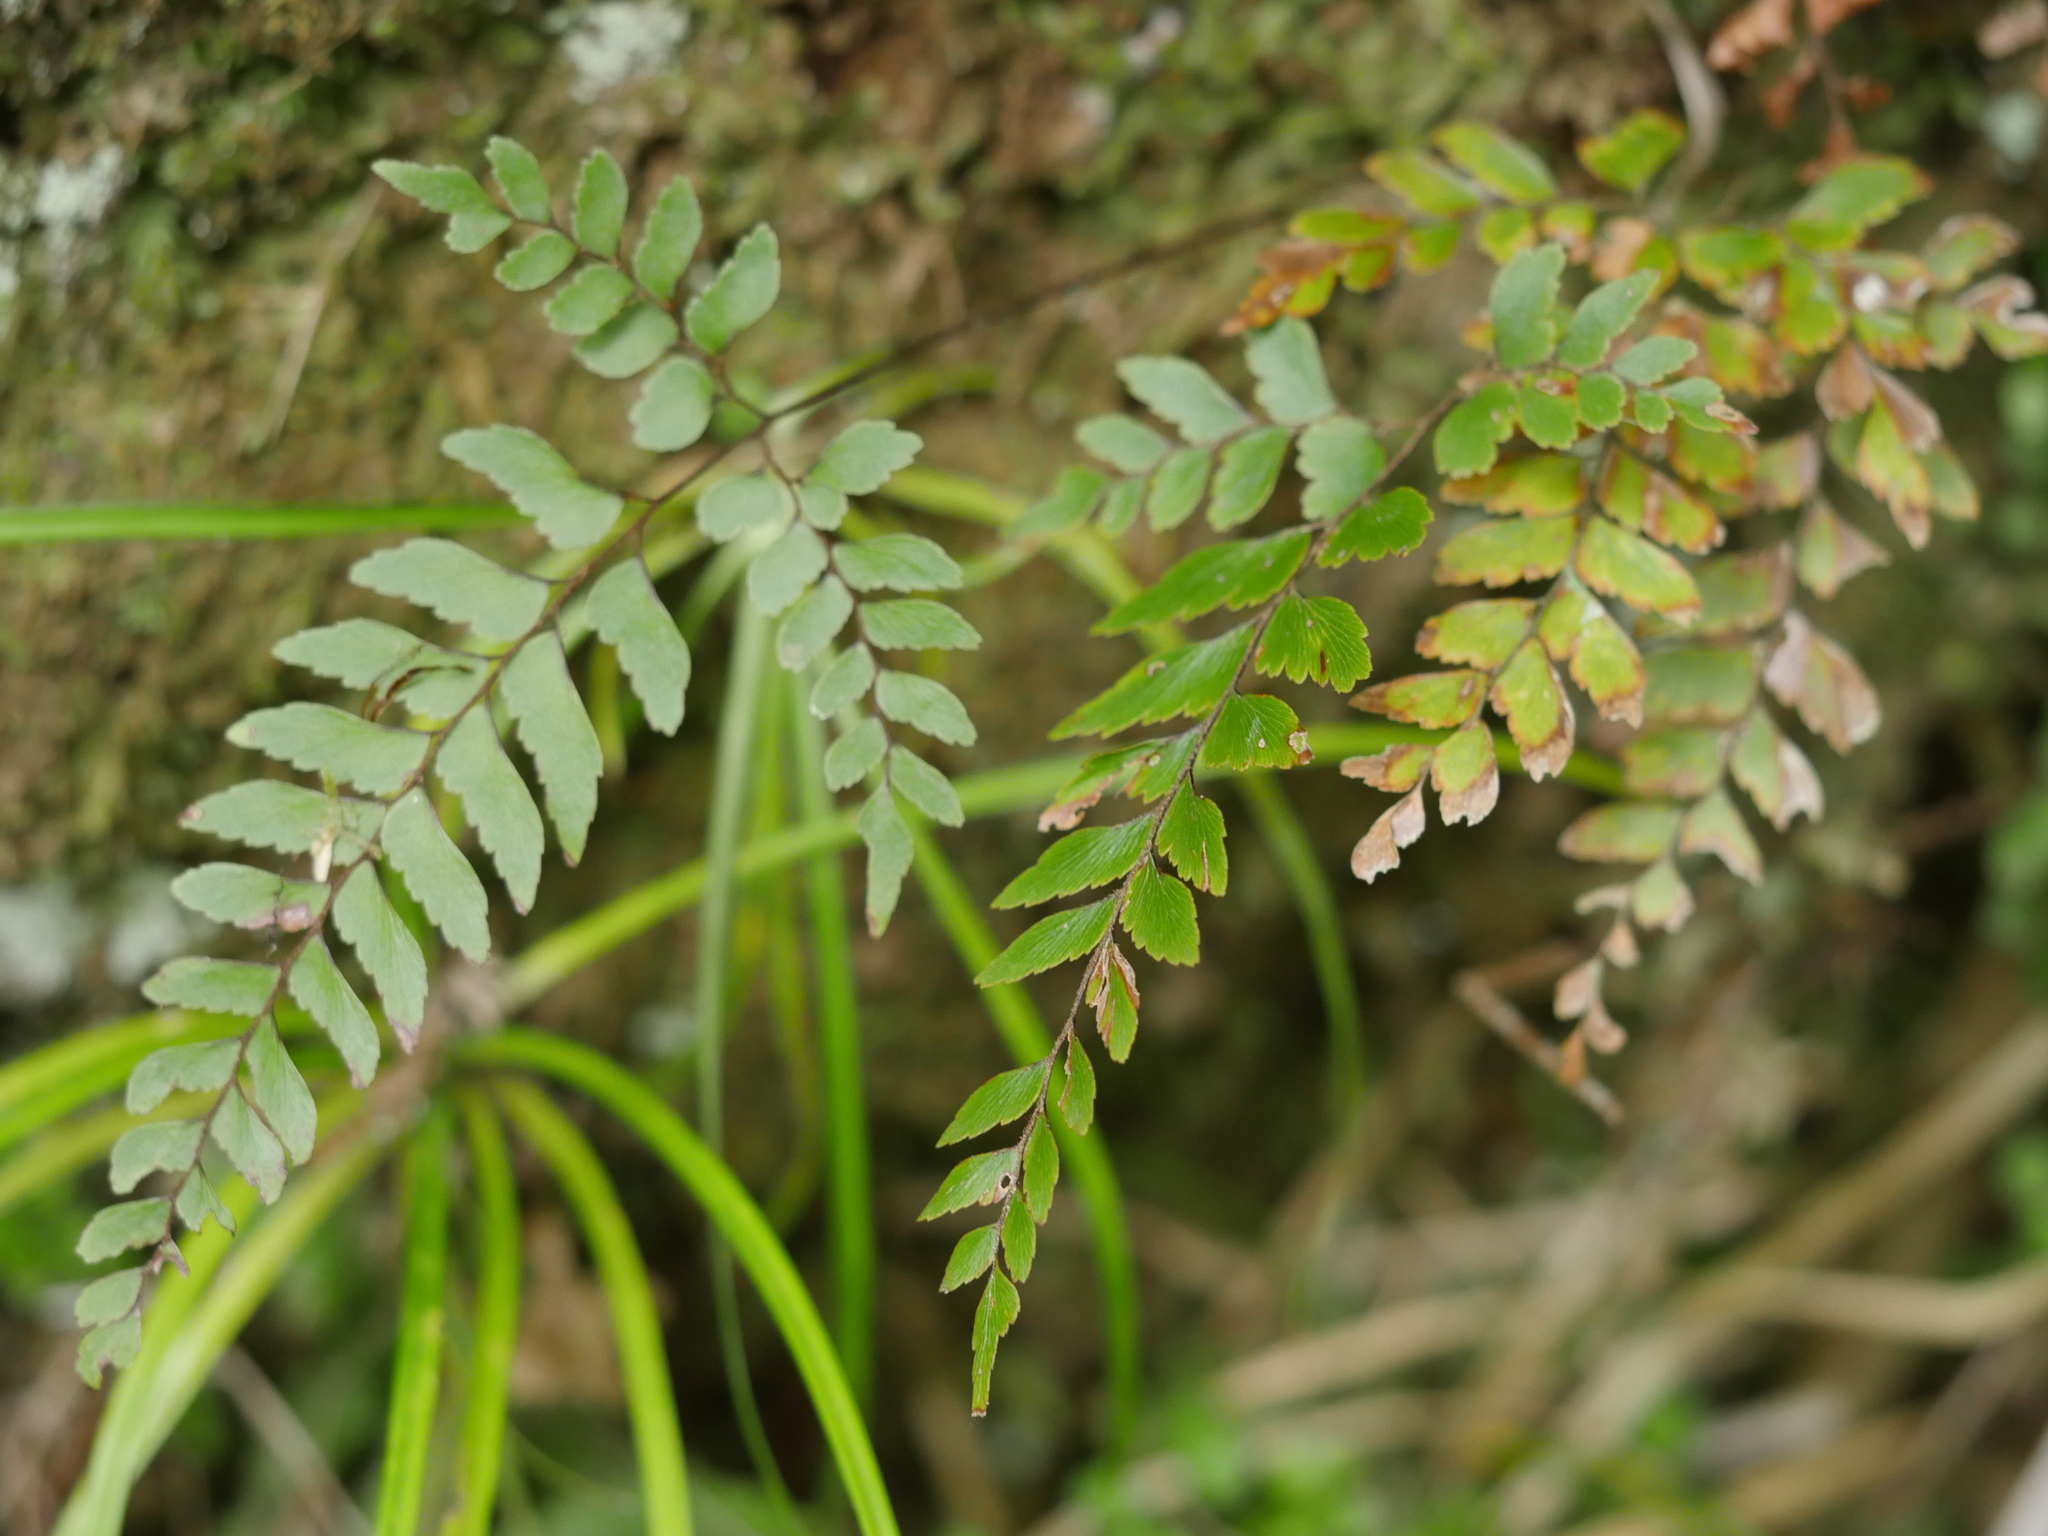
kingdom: Plantae
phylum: Tracheophyta
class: Polypodiopsida
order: Polypodiales
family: Pteridaceae
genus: Adiantum
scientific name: Adiantum fulvum
